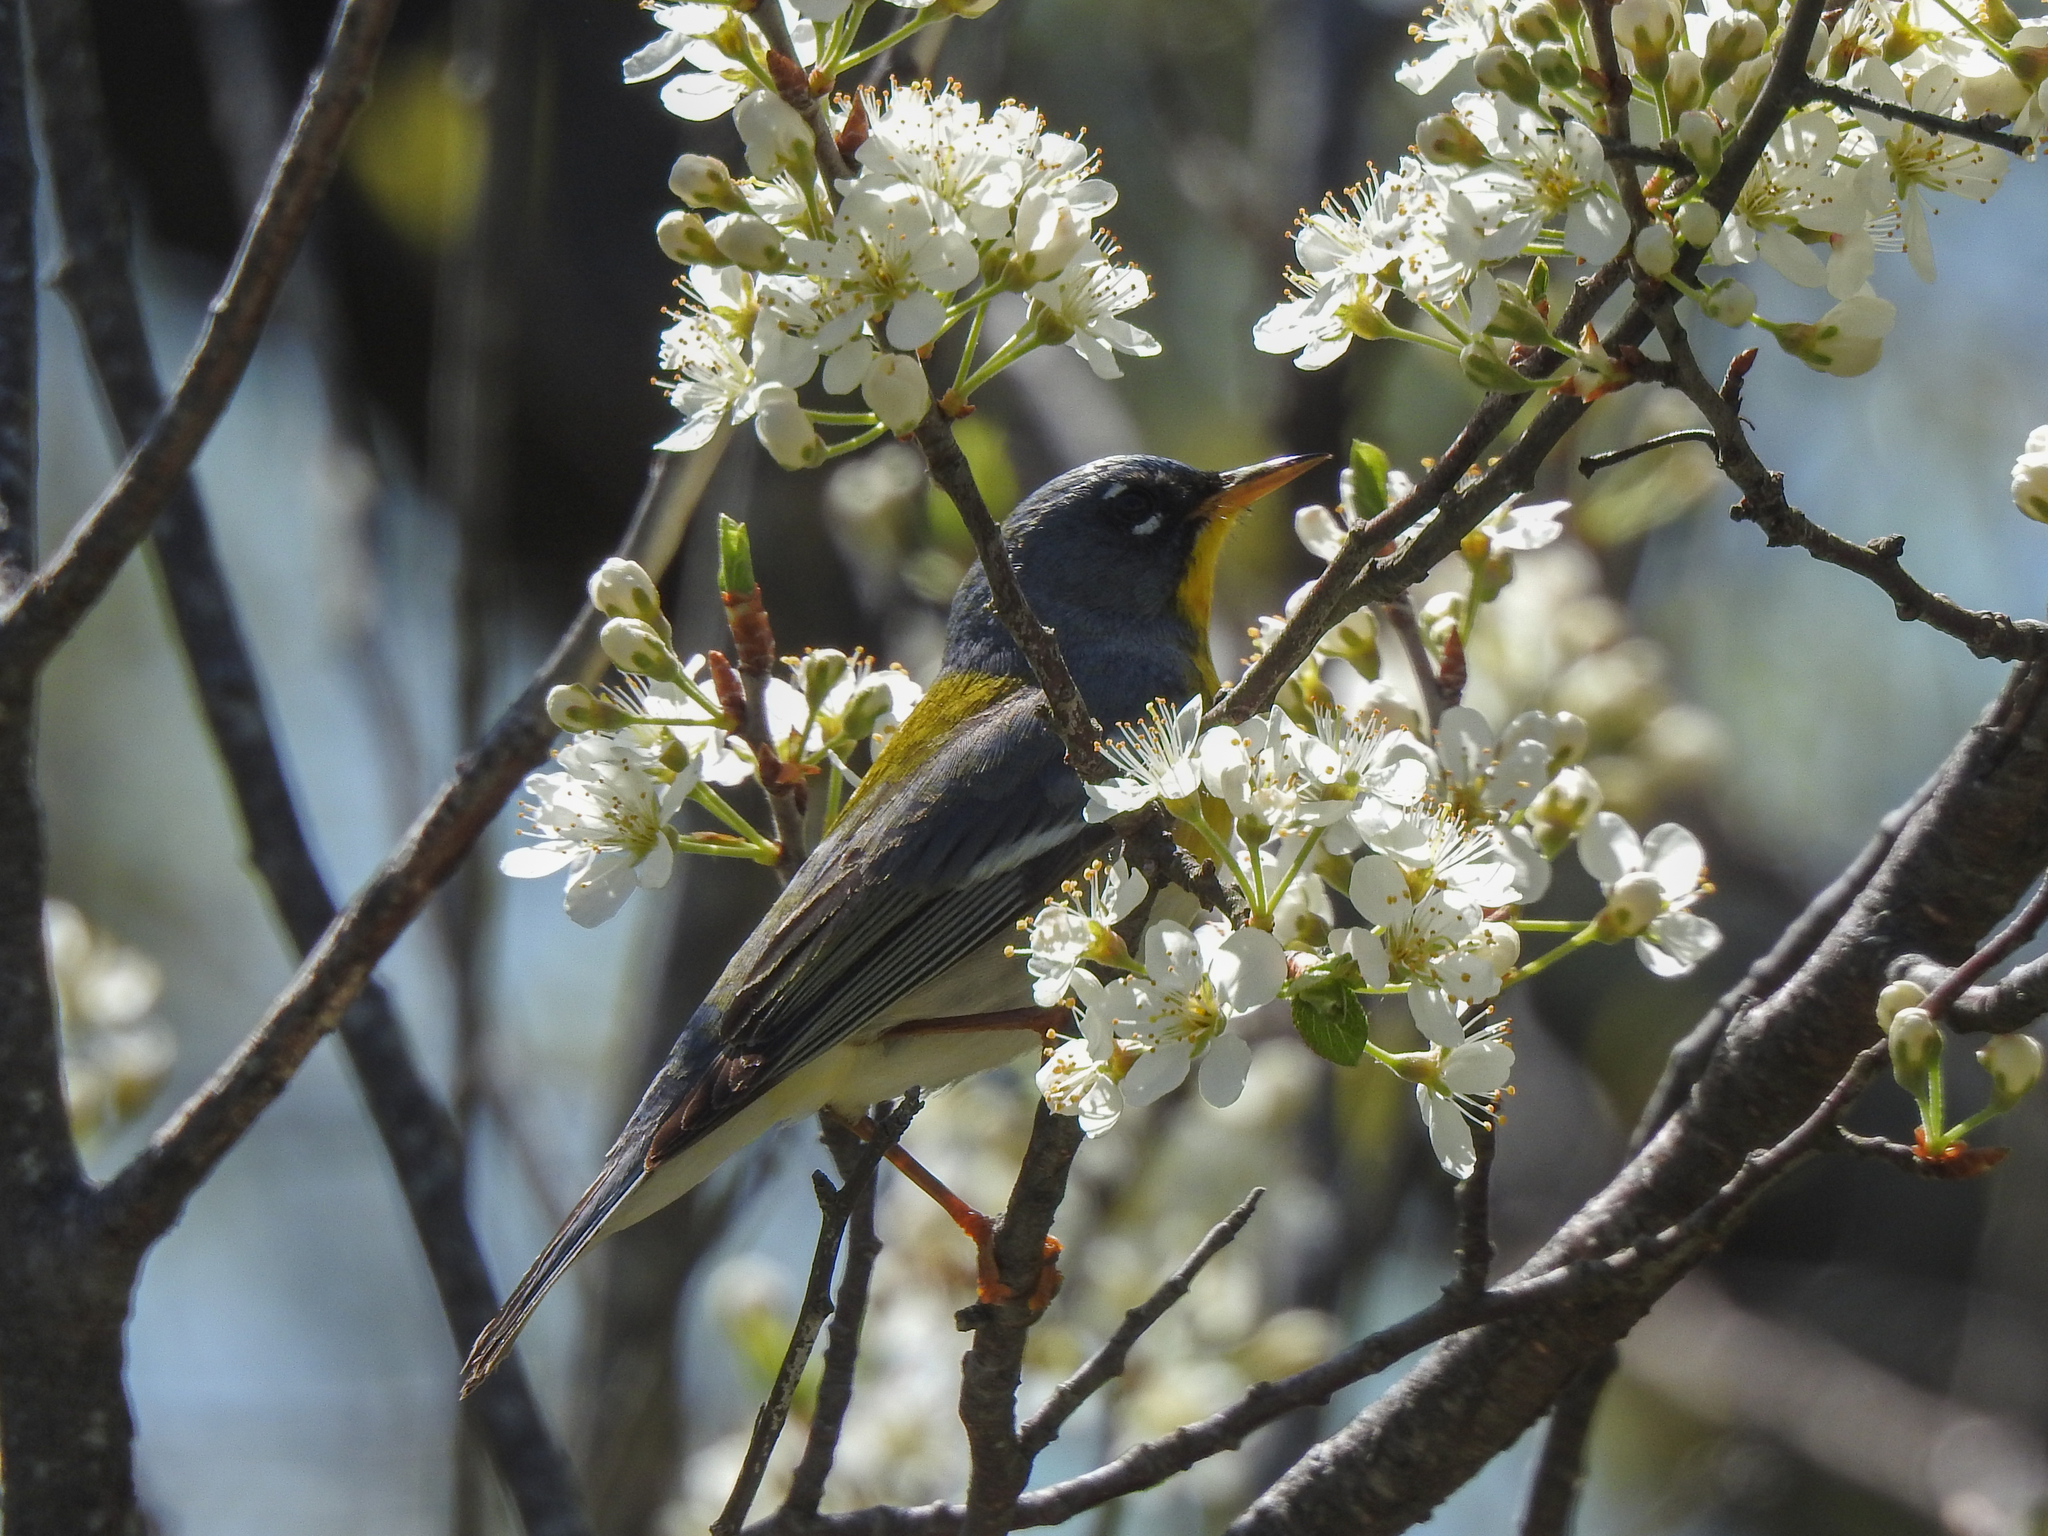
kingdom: Animalia
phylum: Chordata
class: Aves
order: Passeriformes
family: Parulidae
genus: Setophaga
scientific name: Setophaga americana
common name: Northern parula
